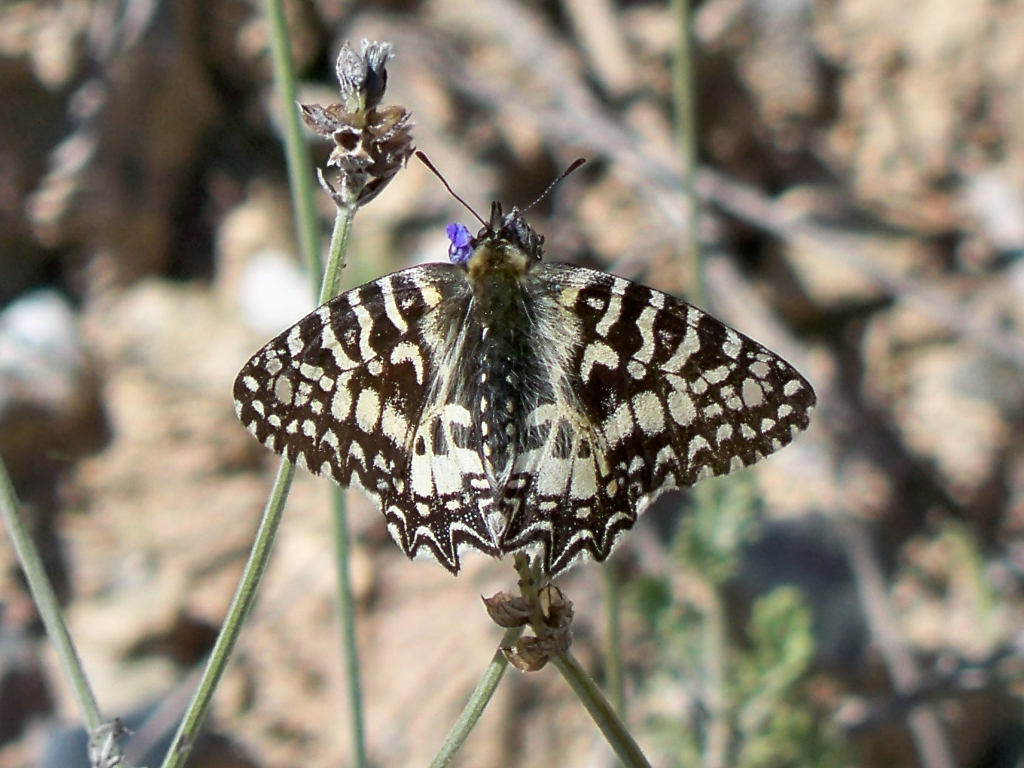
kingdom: Animalia
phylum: Arthropoda
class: Insecta
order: Lepidoptera
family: Papilionidae
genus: Zerynthia
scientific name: Zerynthia rumina
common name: Spanish festoon
